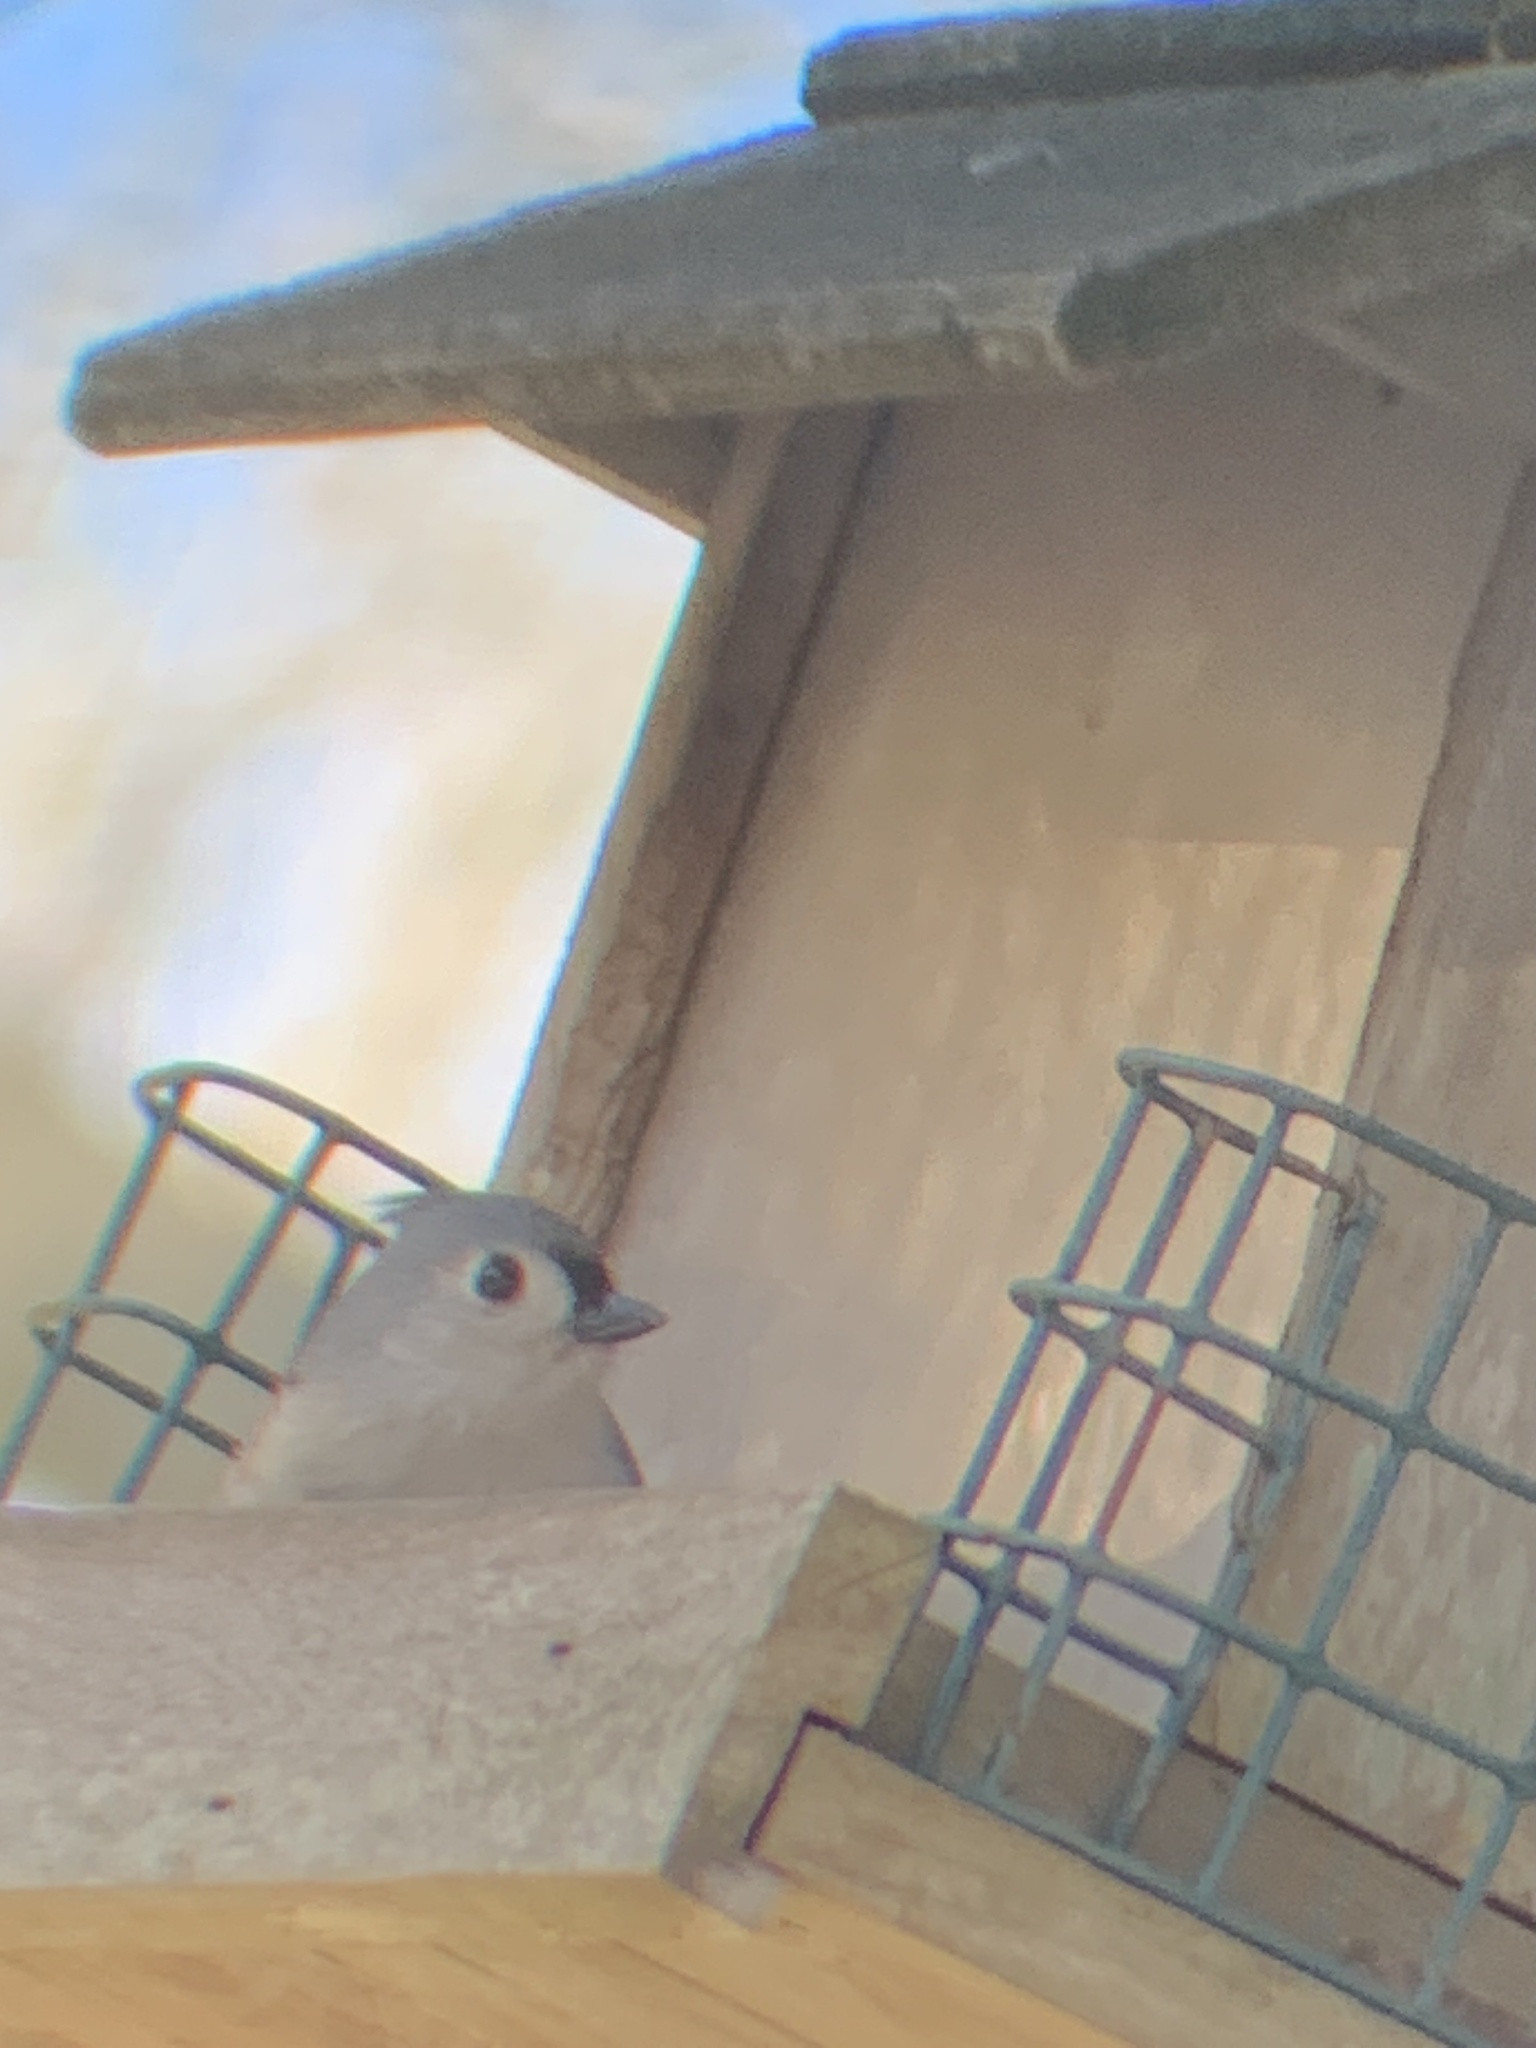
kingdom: Animalia
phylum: Chordata
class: Aves
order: Passeriformes
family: Paridae
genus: Baeolophus
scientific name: Baeolophus bicolor
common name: Tufted titmouse
